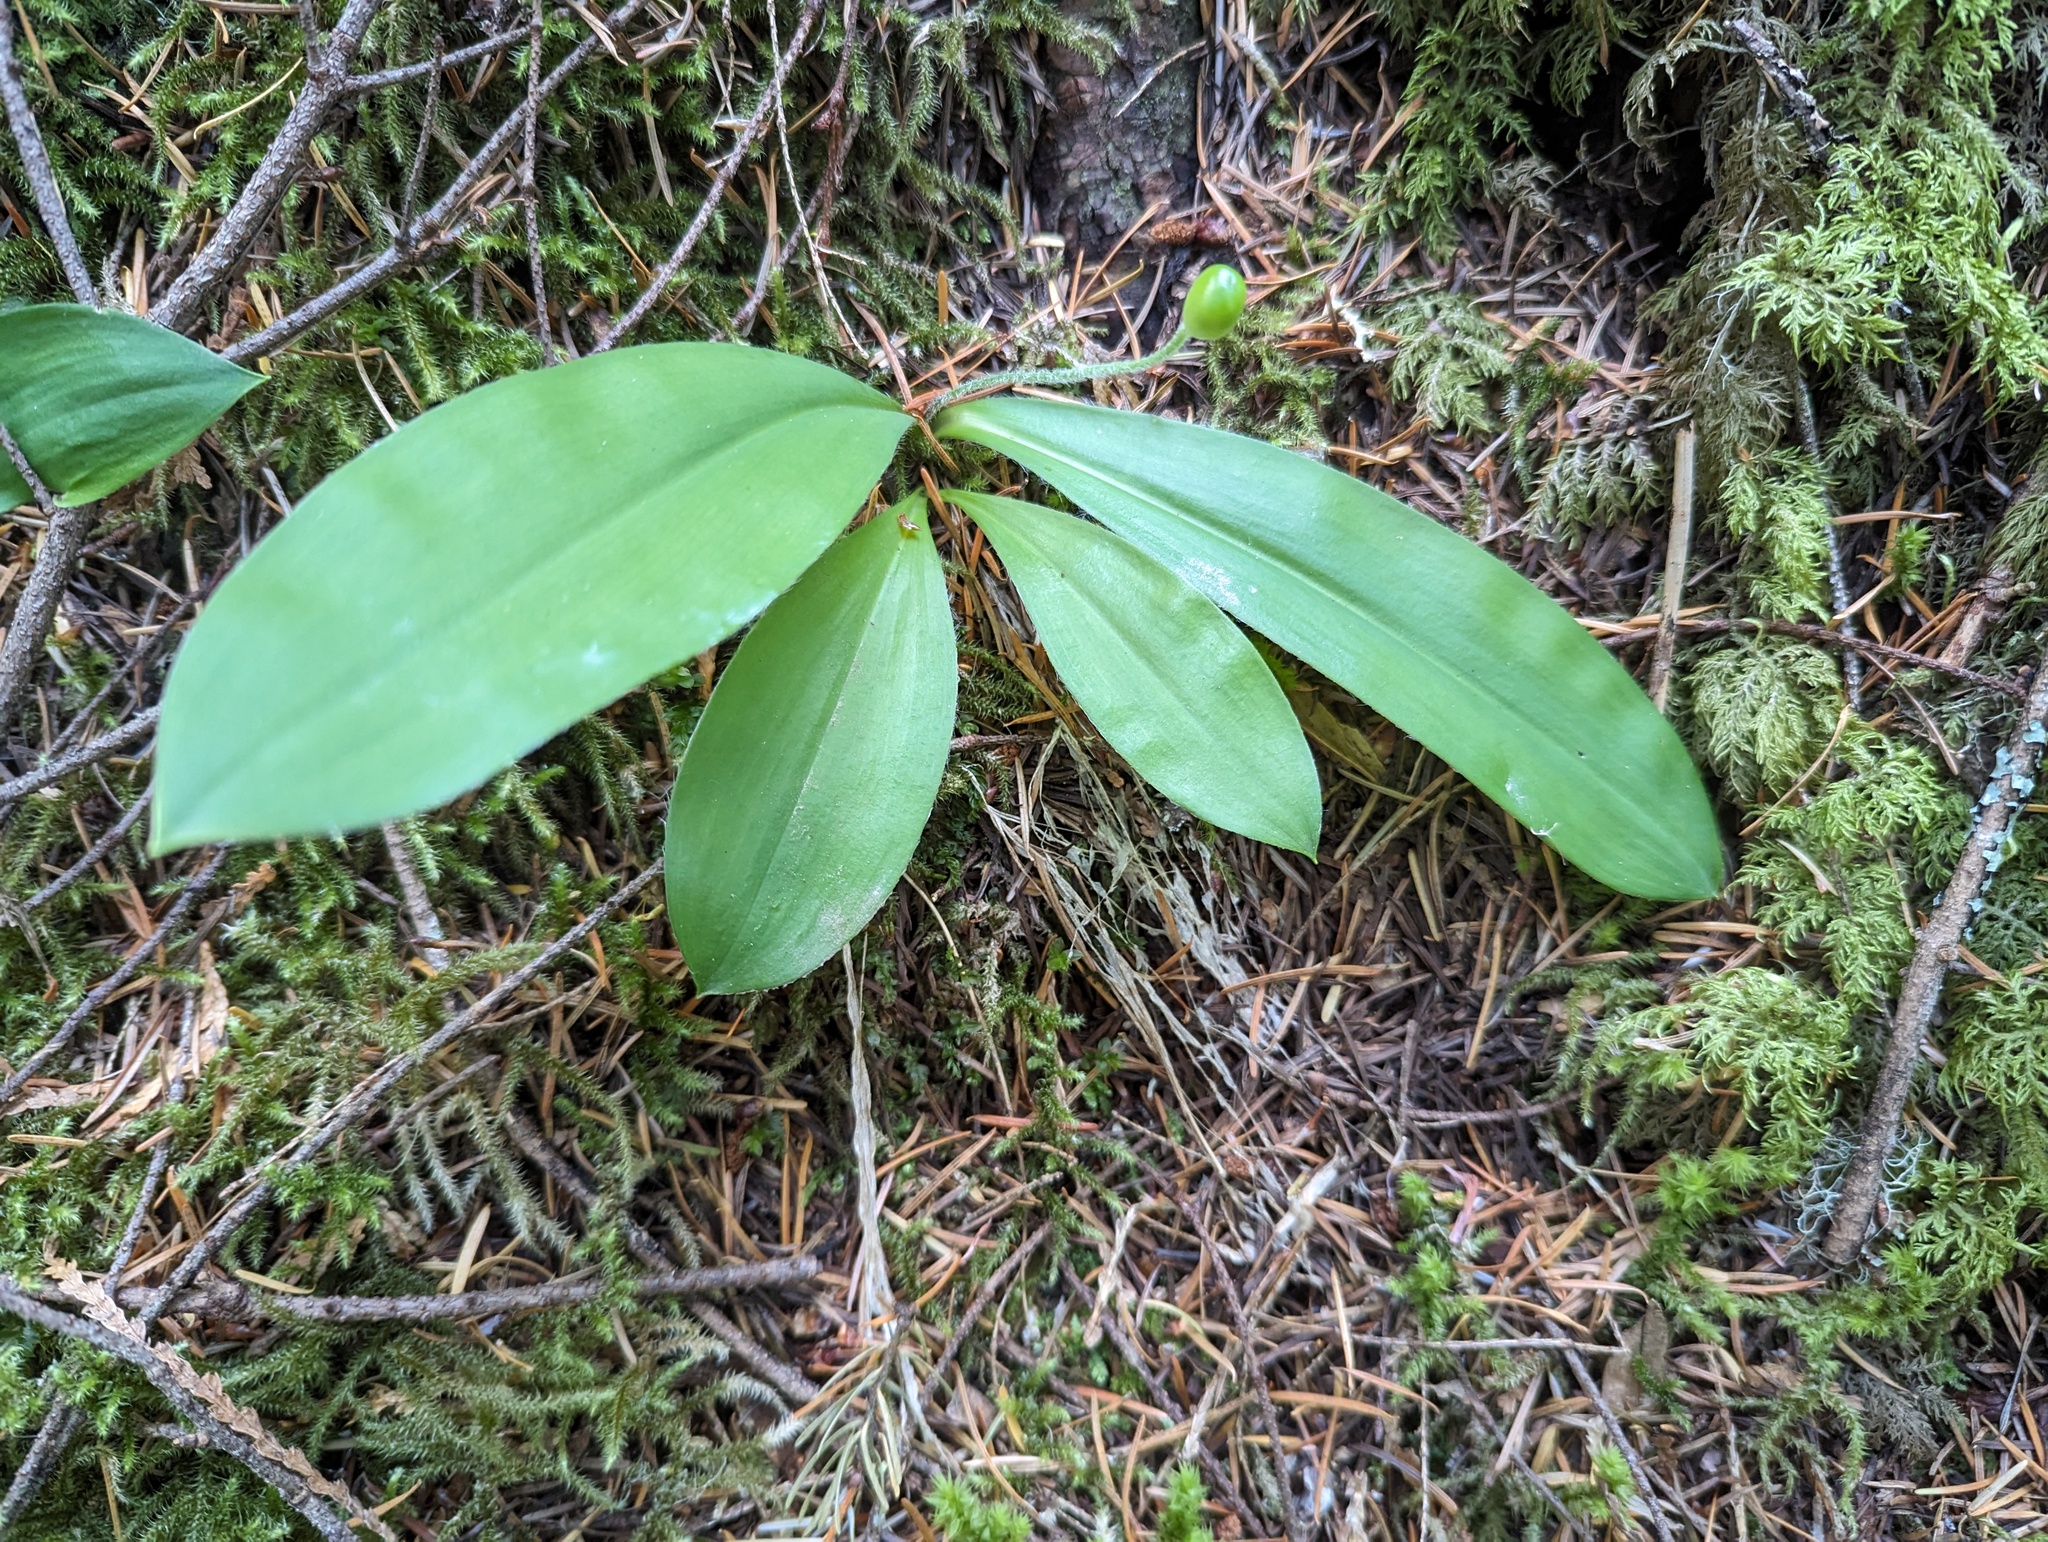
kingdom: Plantae
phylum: Tracheophyta
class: Liliopsida
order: Liliales
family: Liliaceae
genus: Clintonia
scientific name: Clintonia uniflora
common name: Queen's cup
